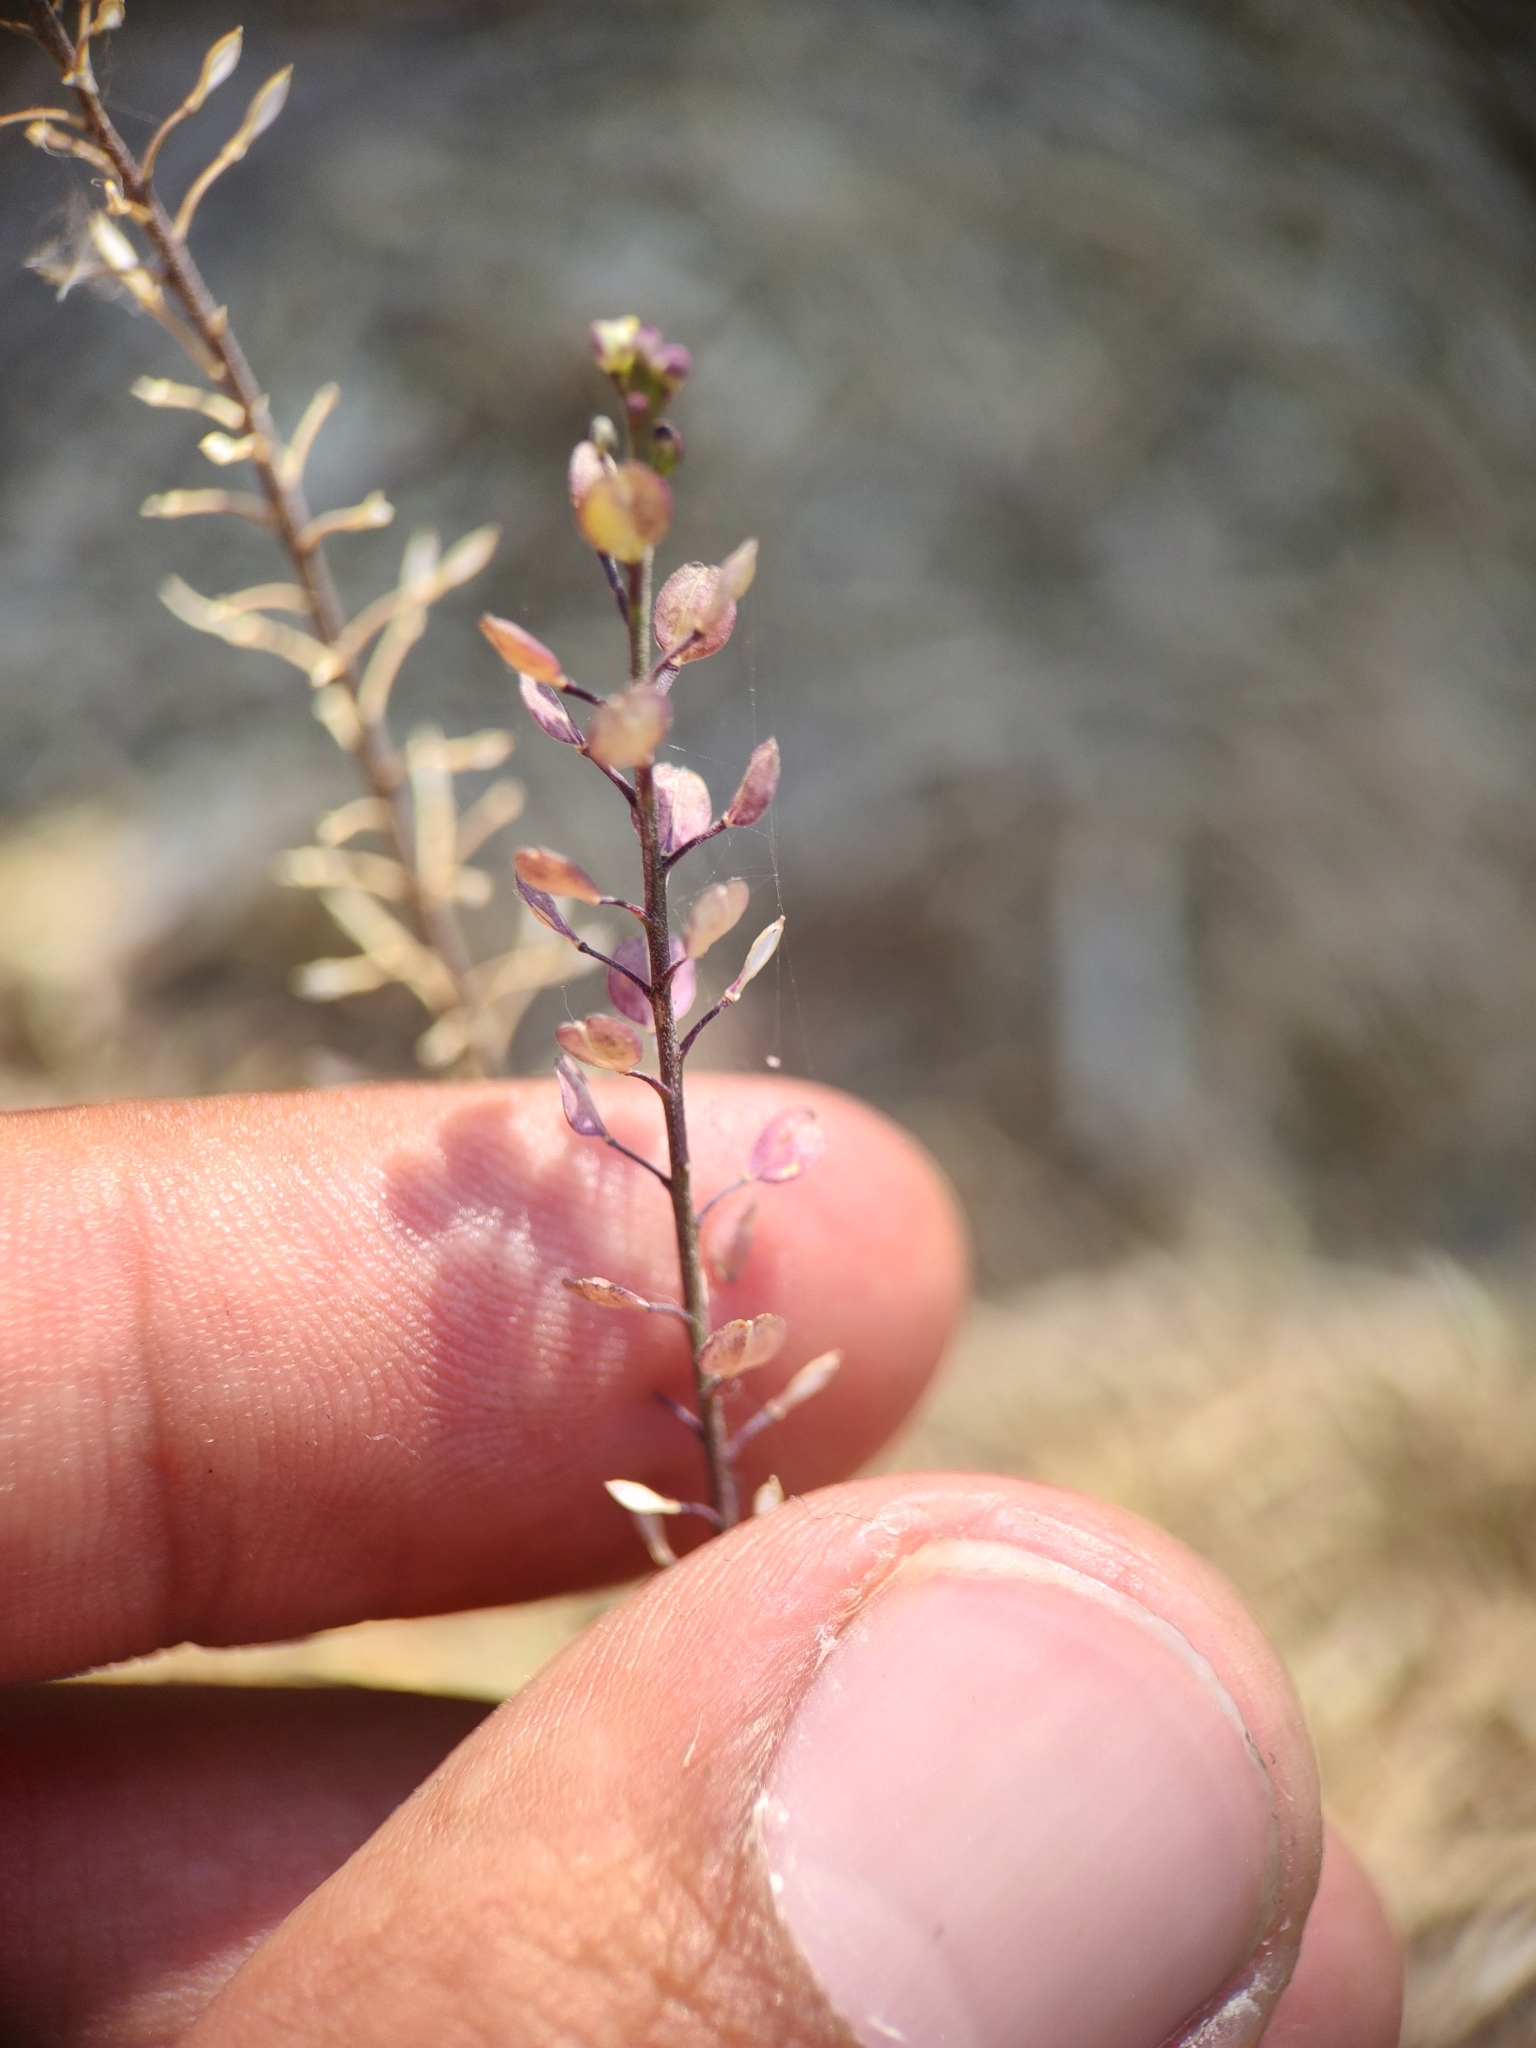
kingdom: Plantae
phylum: Tracheophyta
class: Magnoliopsida
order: Brassicales
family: Brassicaceae
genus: Lepidium
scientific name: Lepidium virginicum
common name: Least pepperwort
